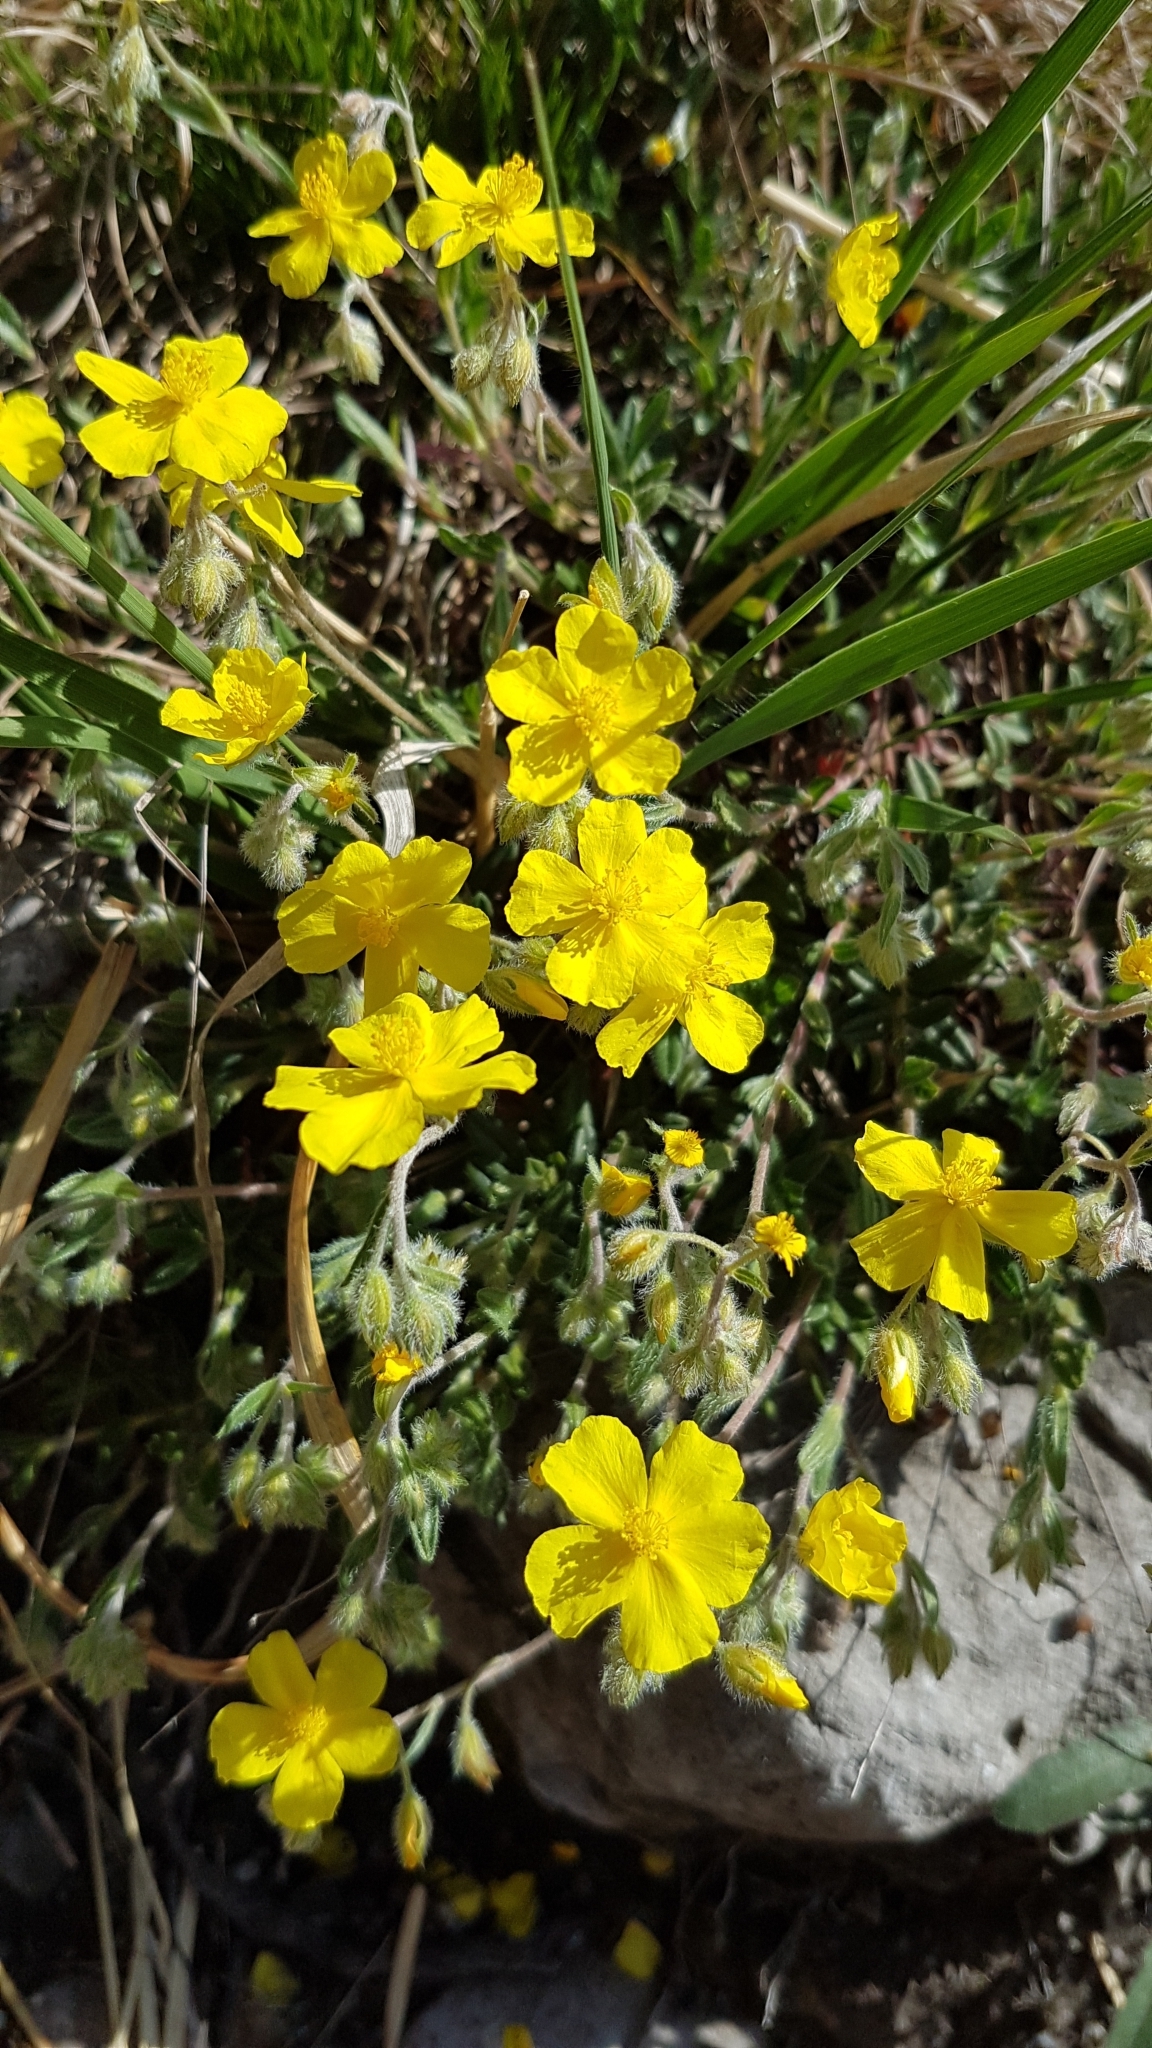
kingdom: Plantae
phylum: Tracheophyta
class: Magnoliopsida
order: Malvales
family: Cistaceae
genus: Helianthemum
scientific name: Helianthemum oelandicum
